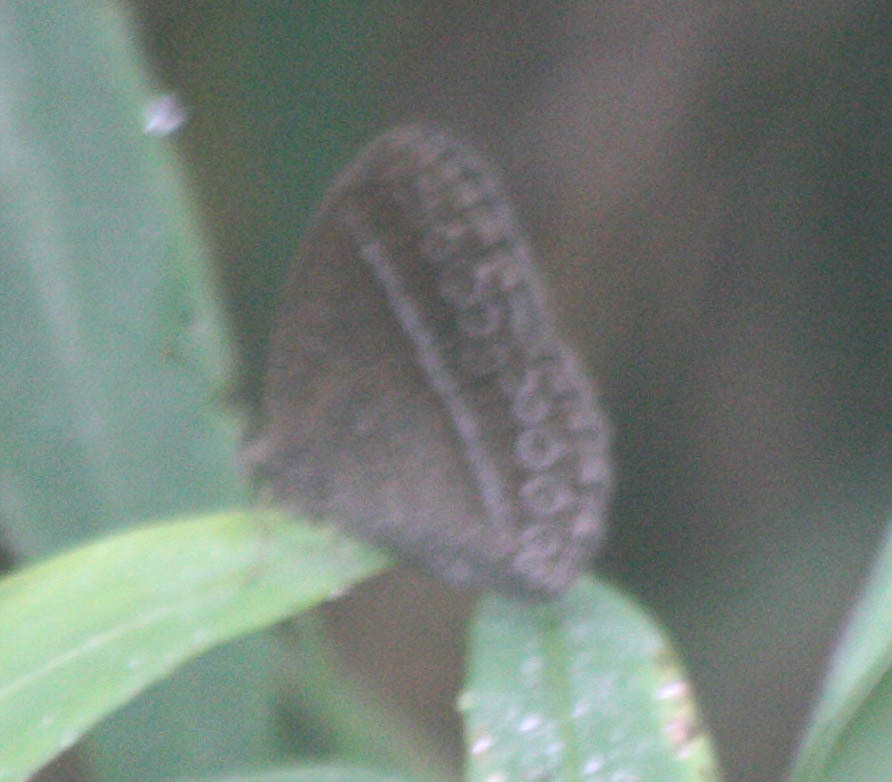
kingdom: Animalia
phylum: Arthropoda
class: Insecta
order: Lepidoptera
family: Nymphalidae
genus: Mycalesis
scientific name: Mycalesis Telinga janardana
